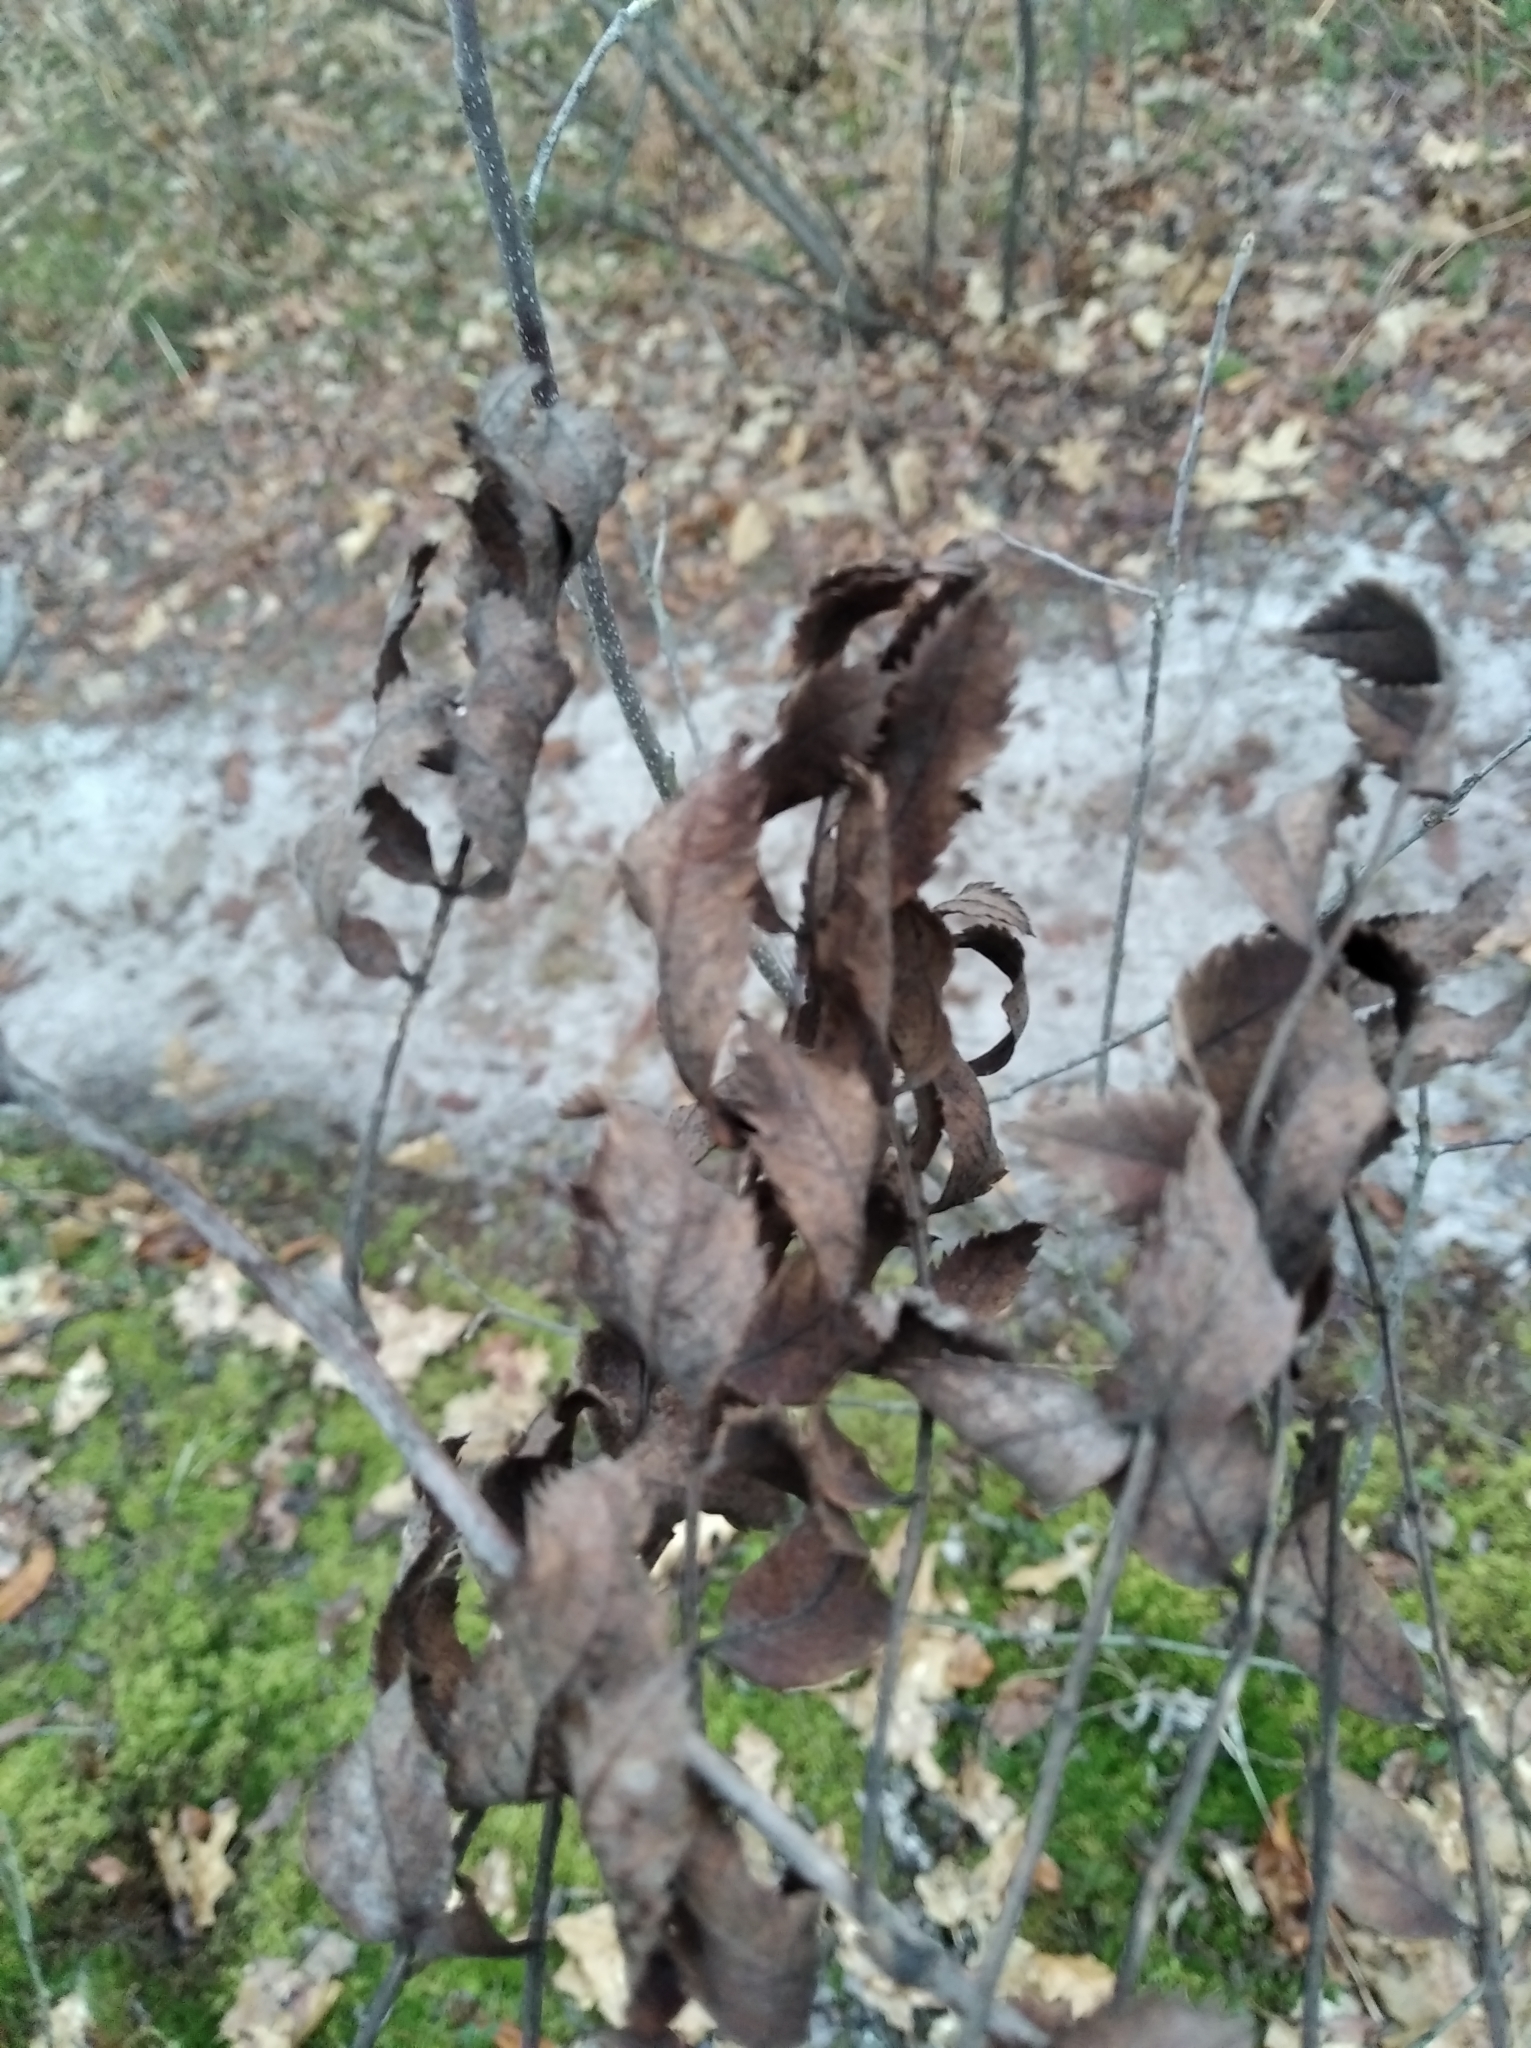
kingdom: Plantae
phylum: Tracheophyta
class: Magnoliopsida
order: Rosales
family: Rosaceae
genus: Sorbus
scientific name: Sorbus aucuparia
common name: Rowan
